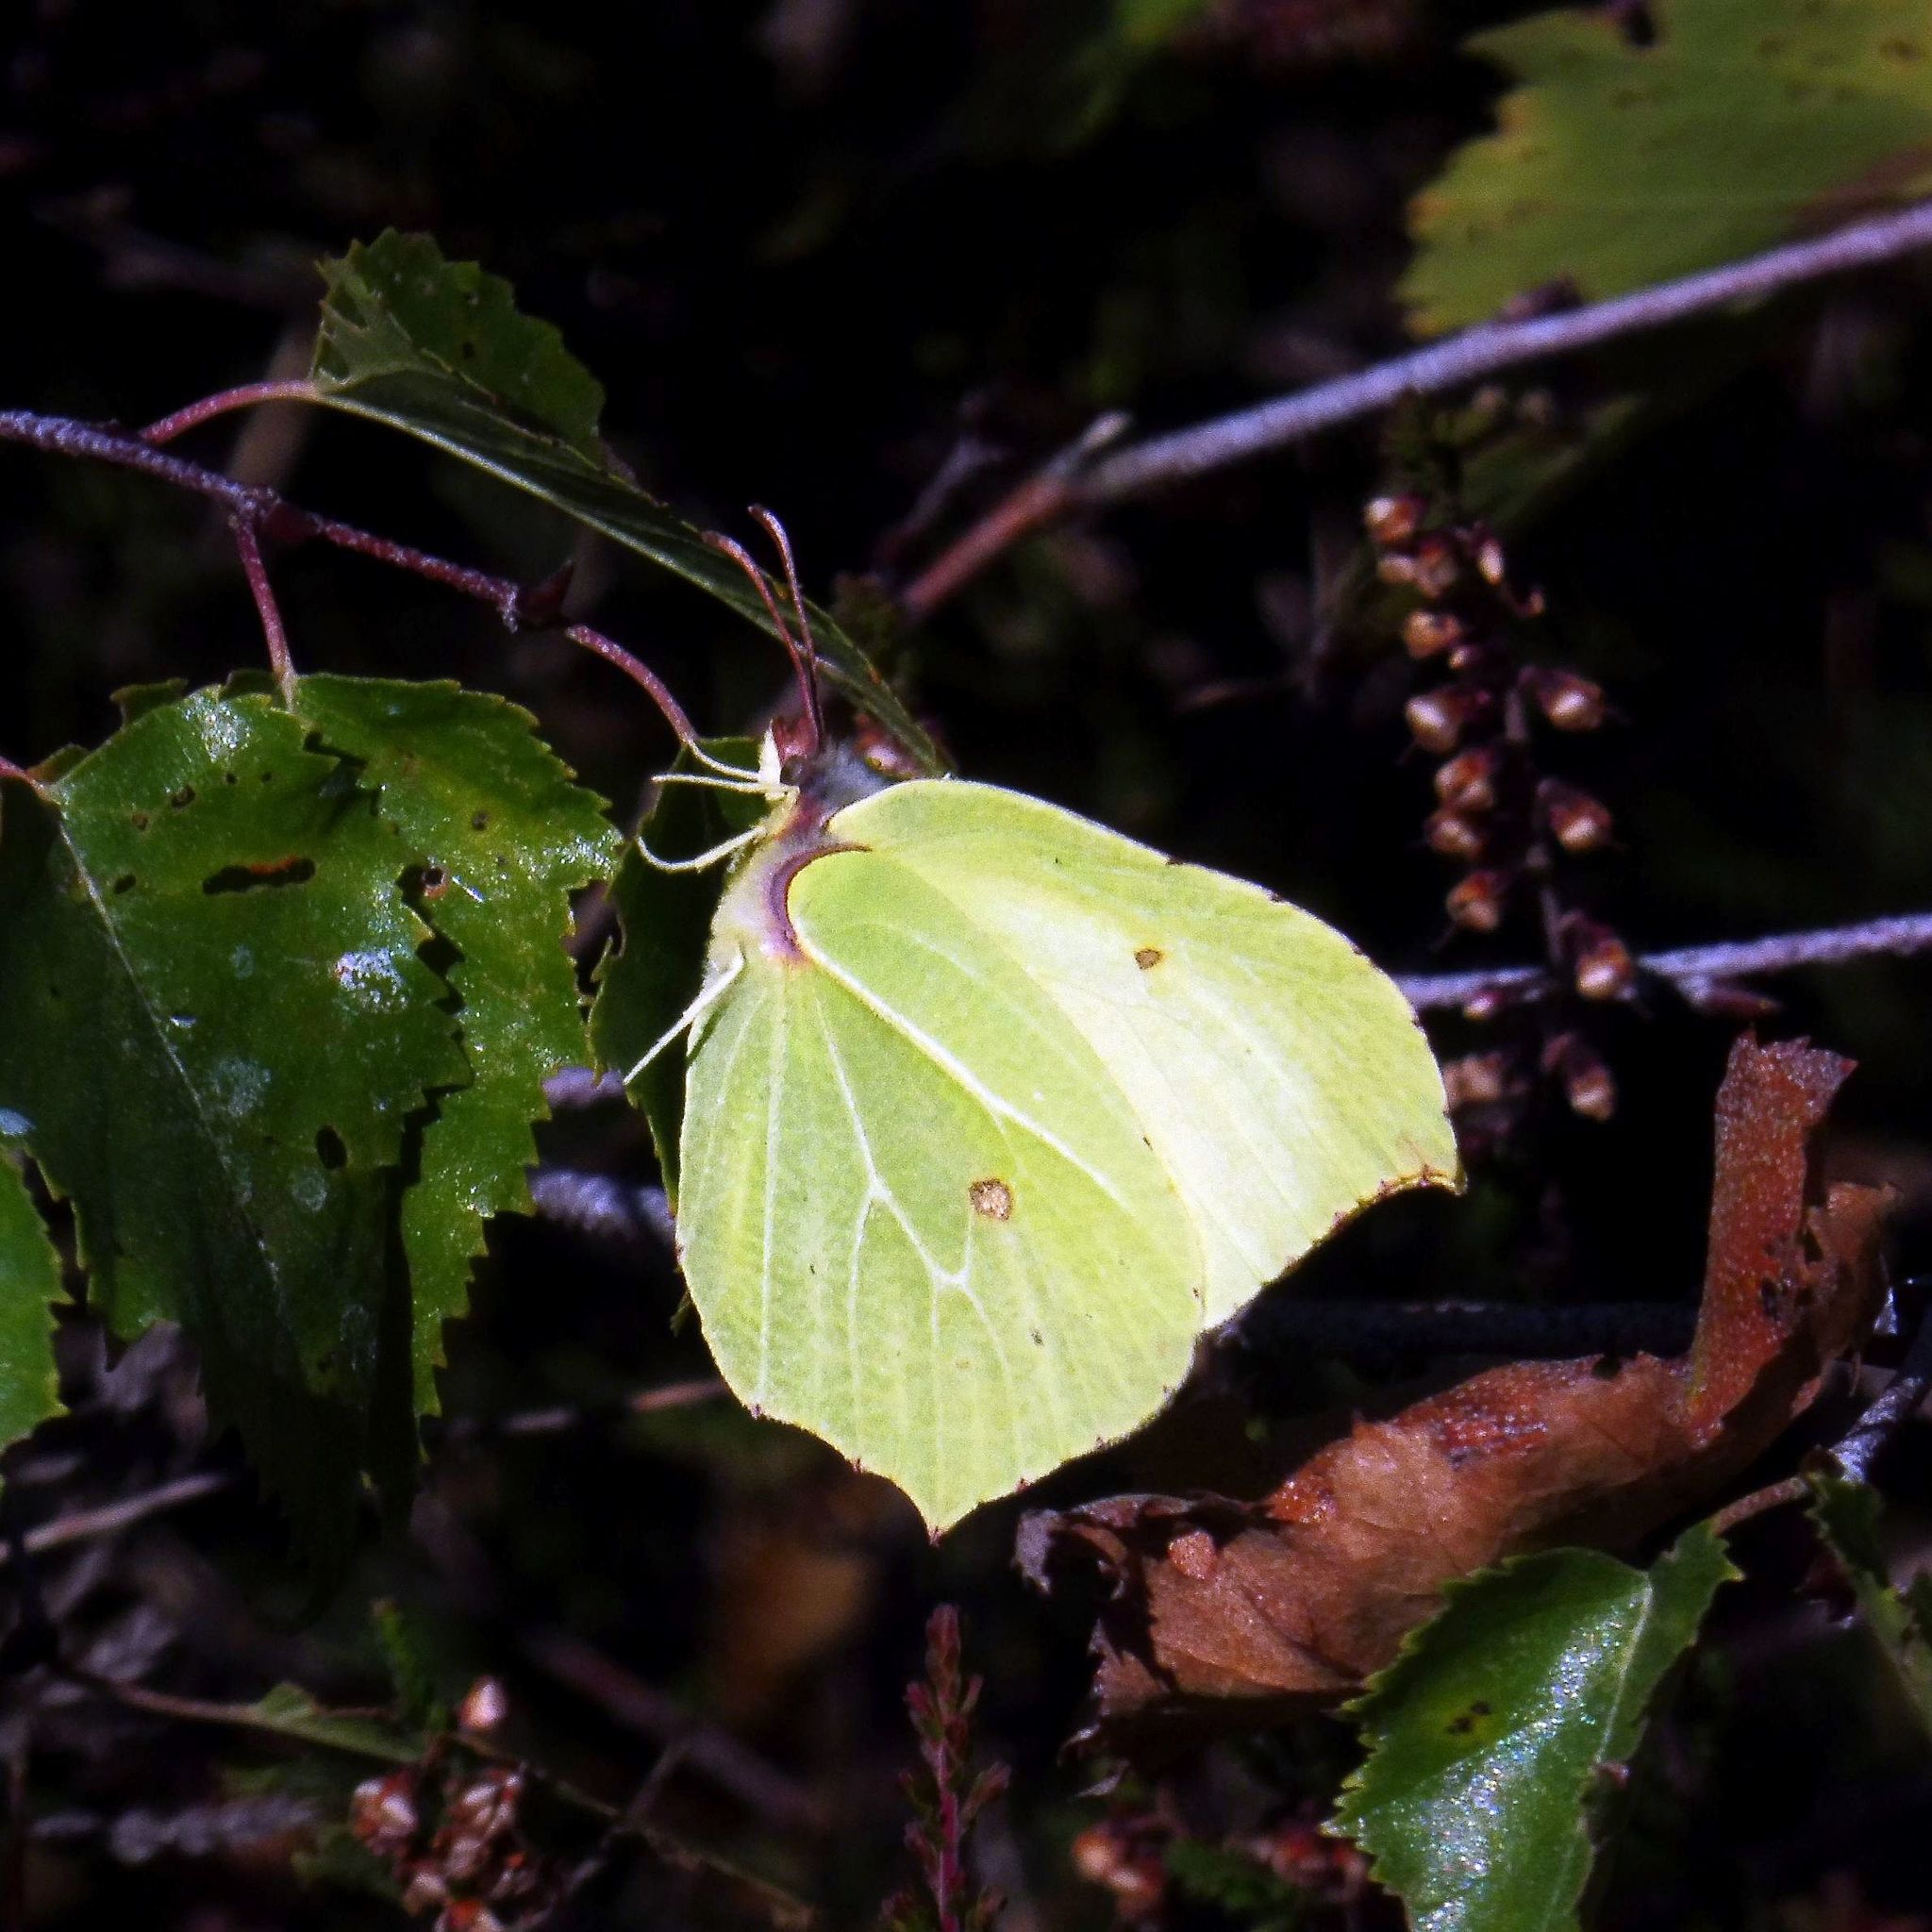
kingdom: Animalia
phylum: Arthropoda
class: Insecta
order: Lepidoptera
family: Pieridae
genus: Gonepteryx
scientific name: Gonepteryx rhamni
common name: Brimstone
